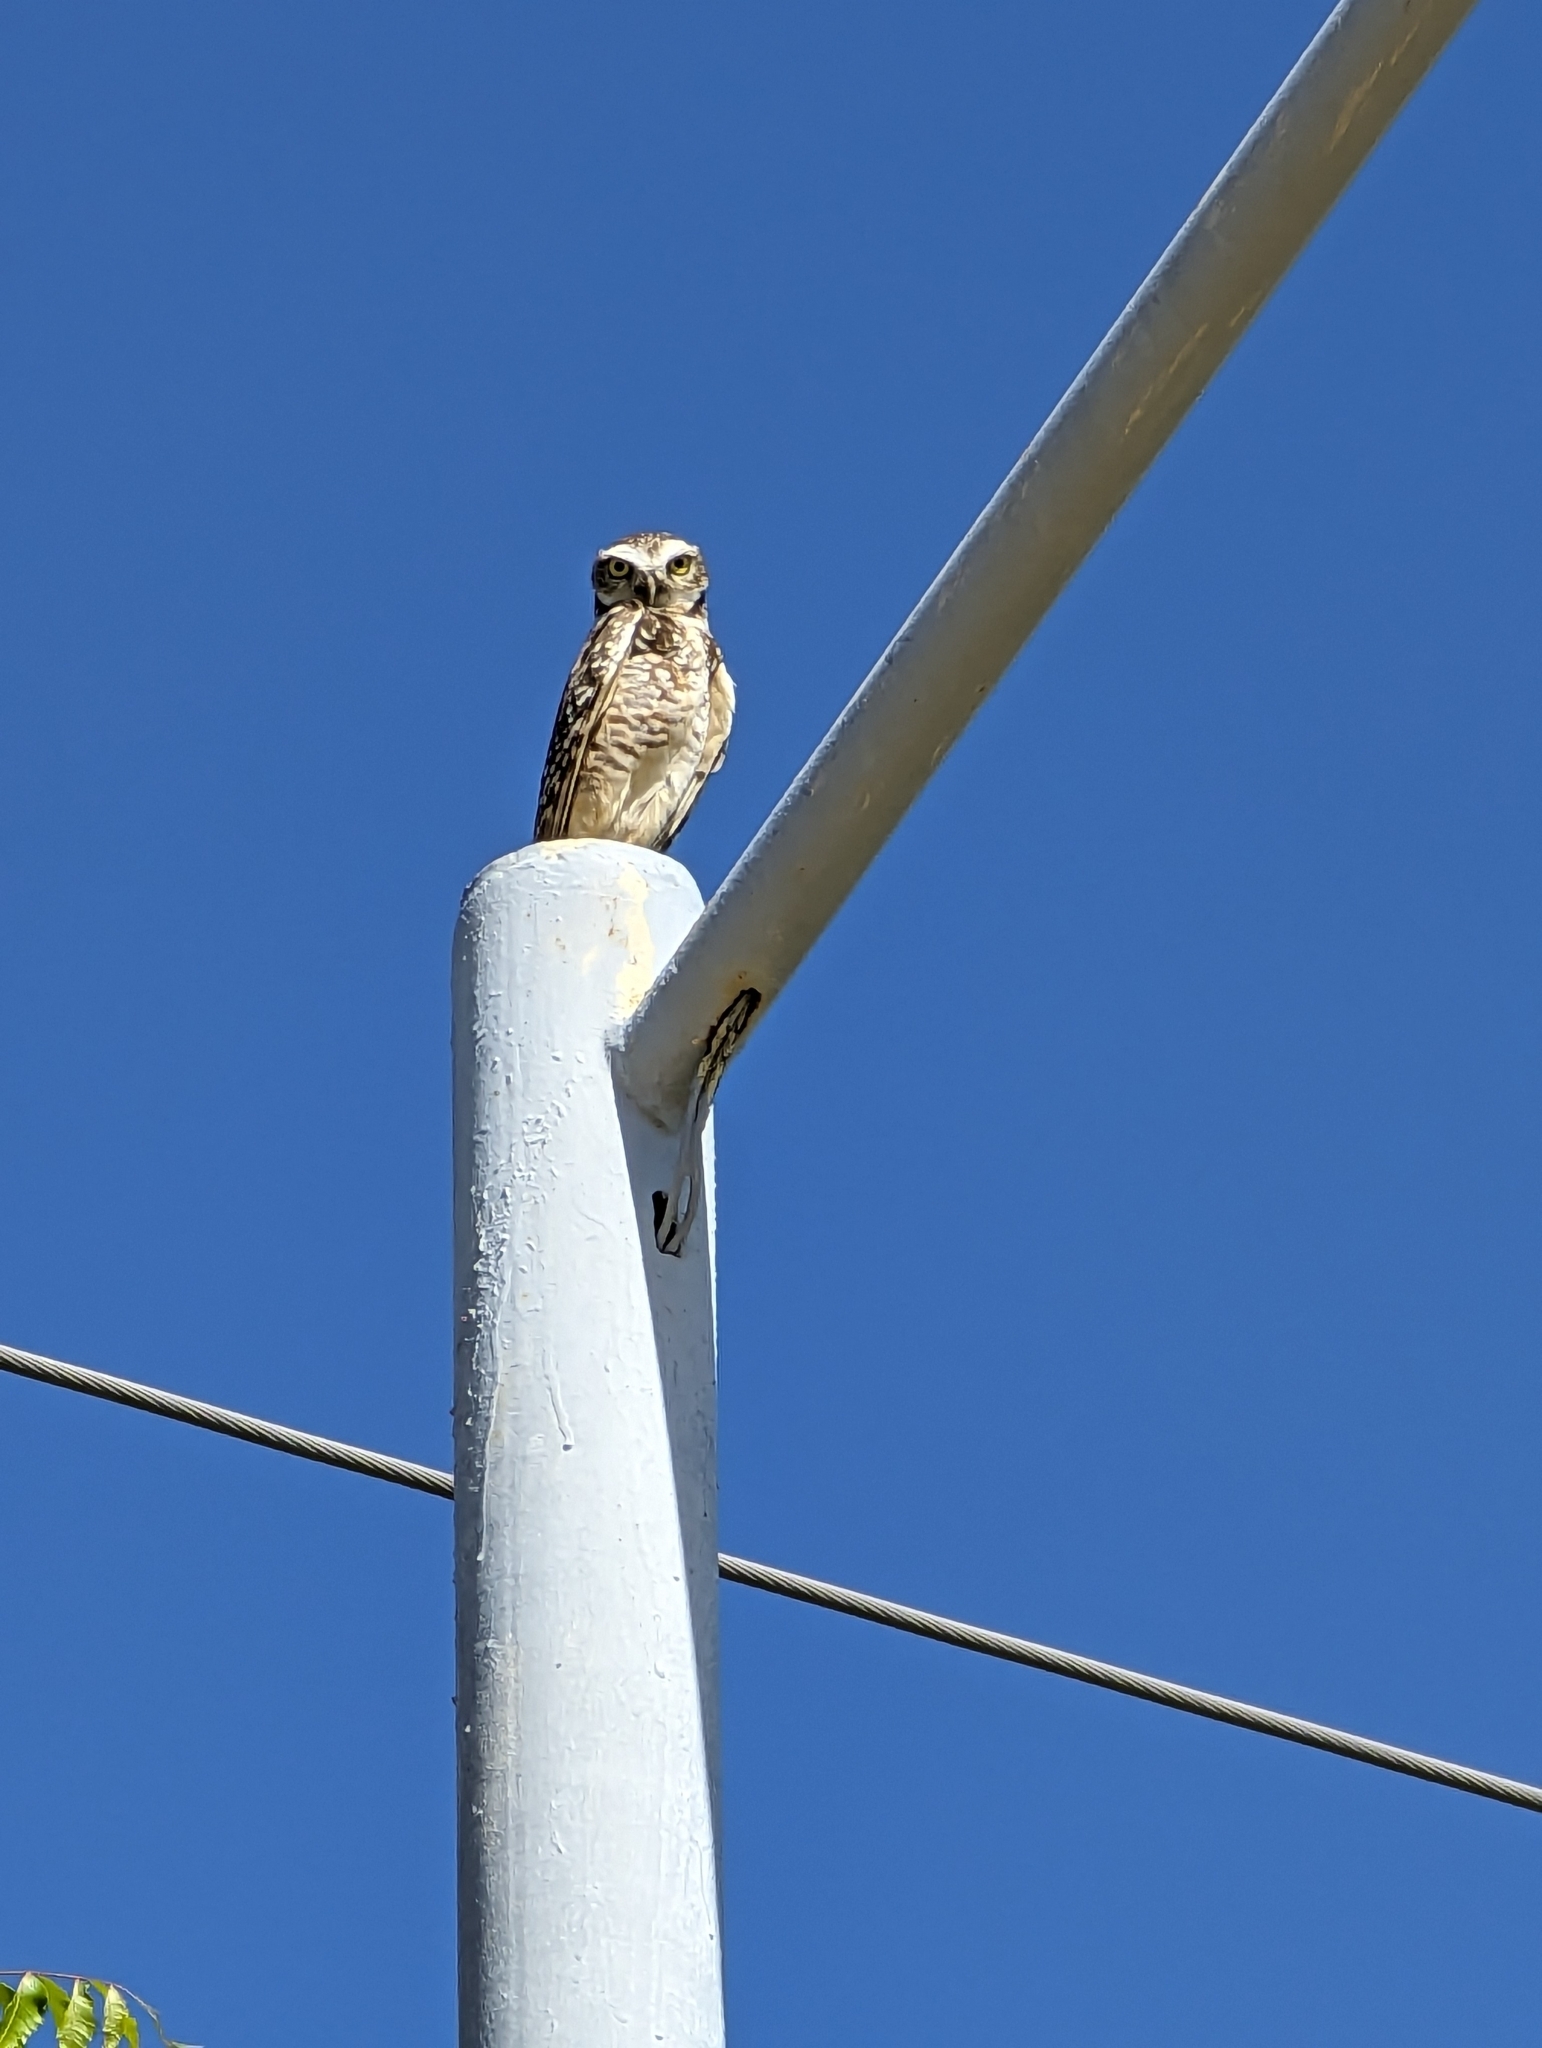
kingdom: Animalia
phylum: Chordata
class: Aves
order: Strigiformes
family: Strigidae
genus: Athene
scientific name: Athene cunicularia
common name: Burrowing owl
